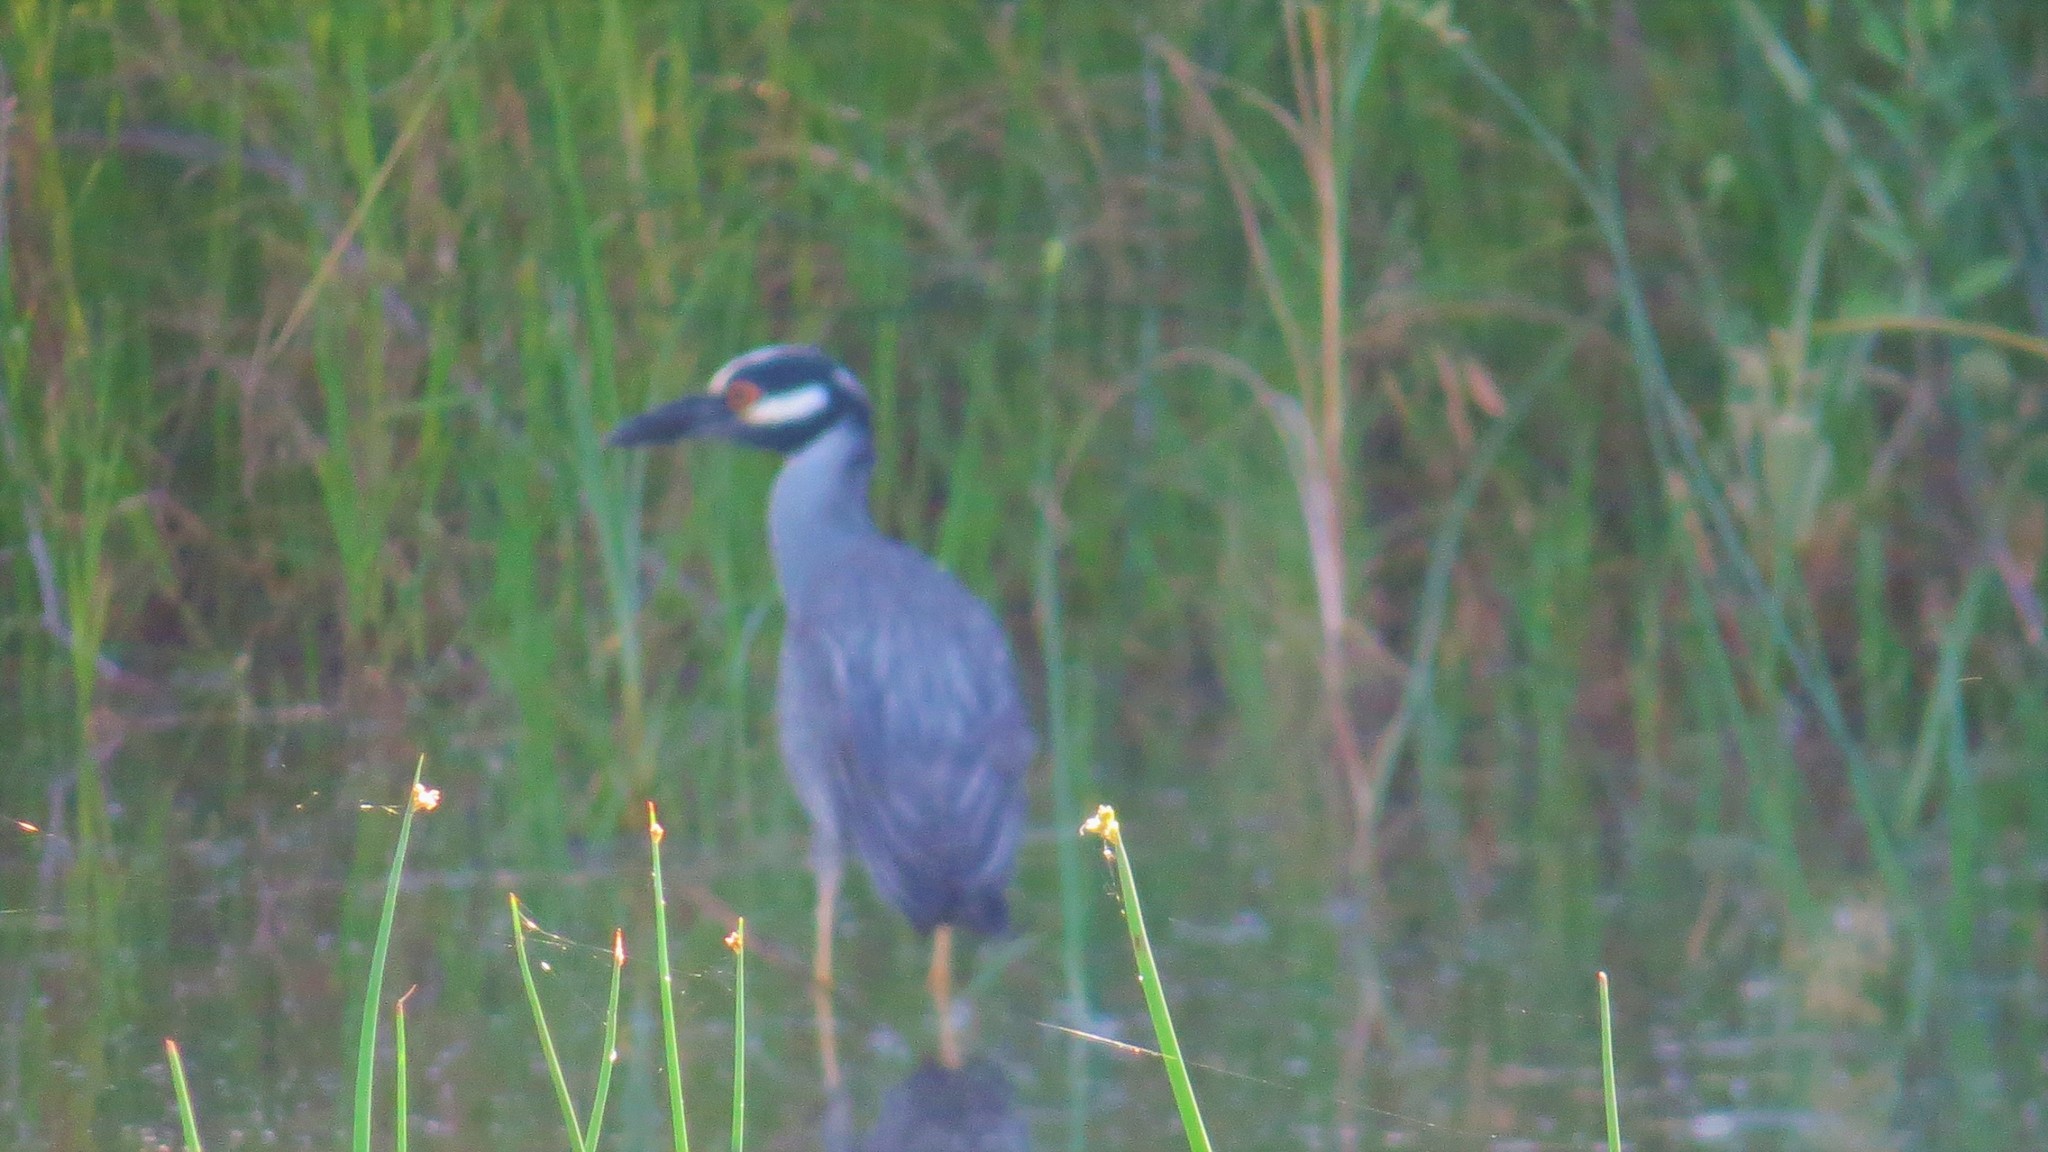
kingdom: Animalia
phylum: Chordata
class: Aves
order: Pelecaniformes
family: Ardeidae
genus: Nyctanassa
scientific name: Nyctanassa violacea
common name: Yellow-crowned night heron
